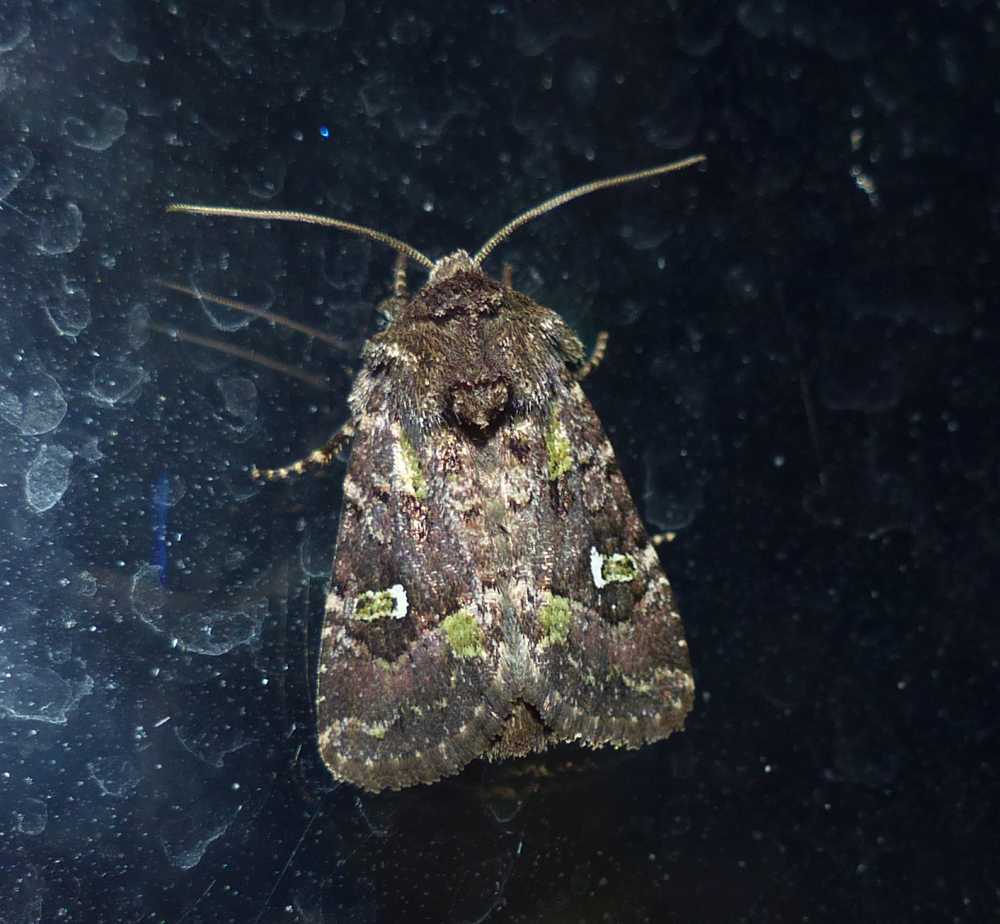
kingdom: Animalia
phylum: Arthropoda
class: Insecta
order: Lepidoptera
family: Noctuidae
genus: Lacinipolia
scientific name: Lacinipolia renigera
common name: Kidney-spotted minor
